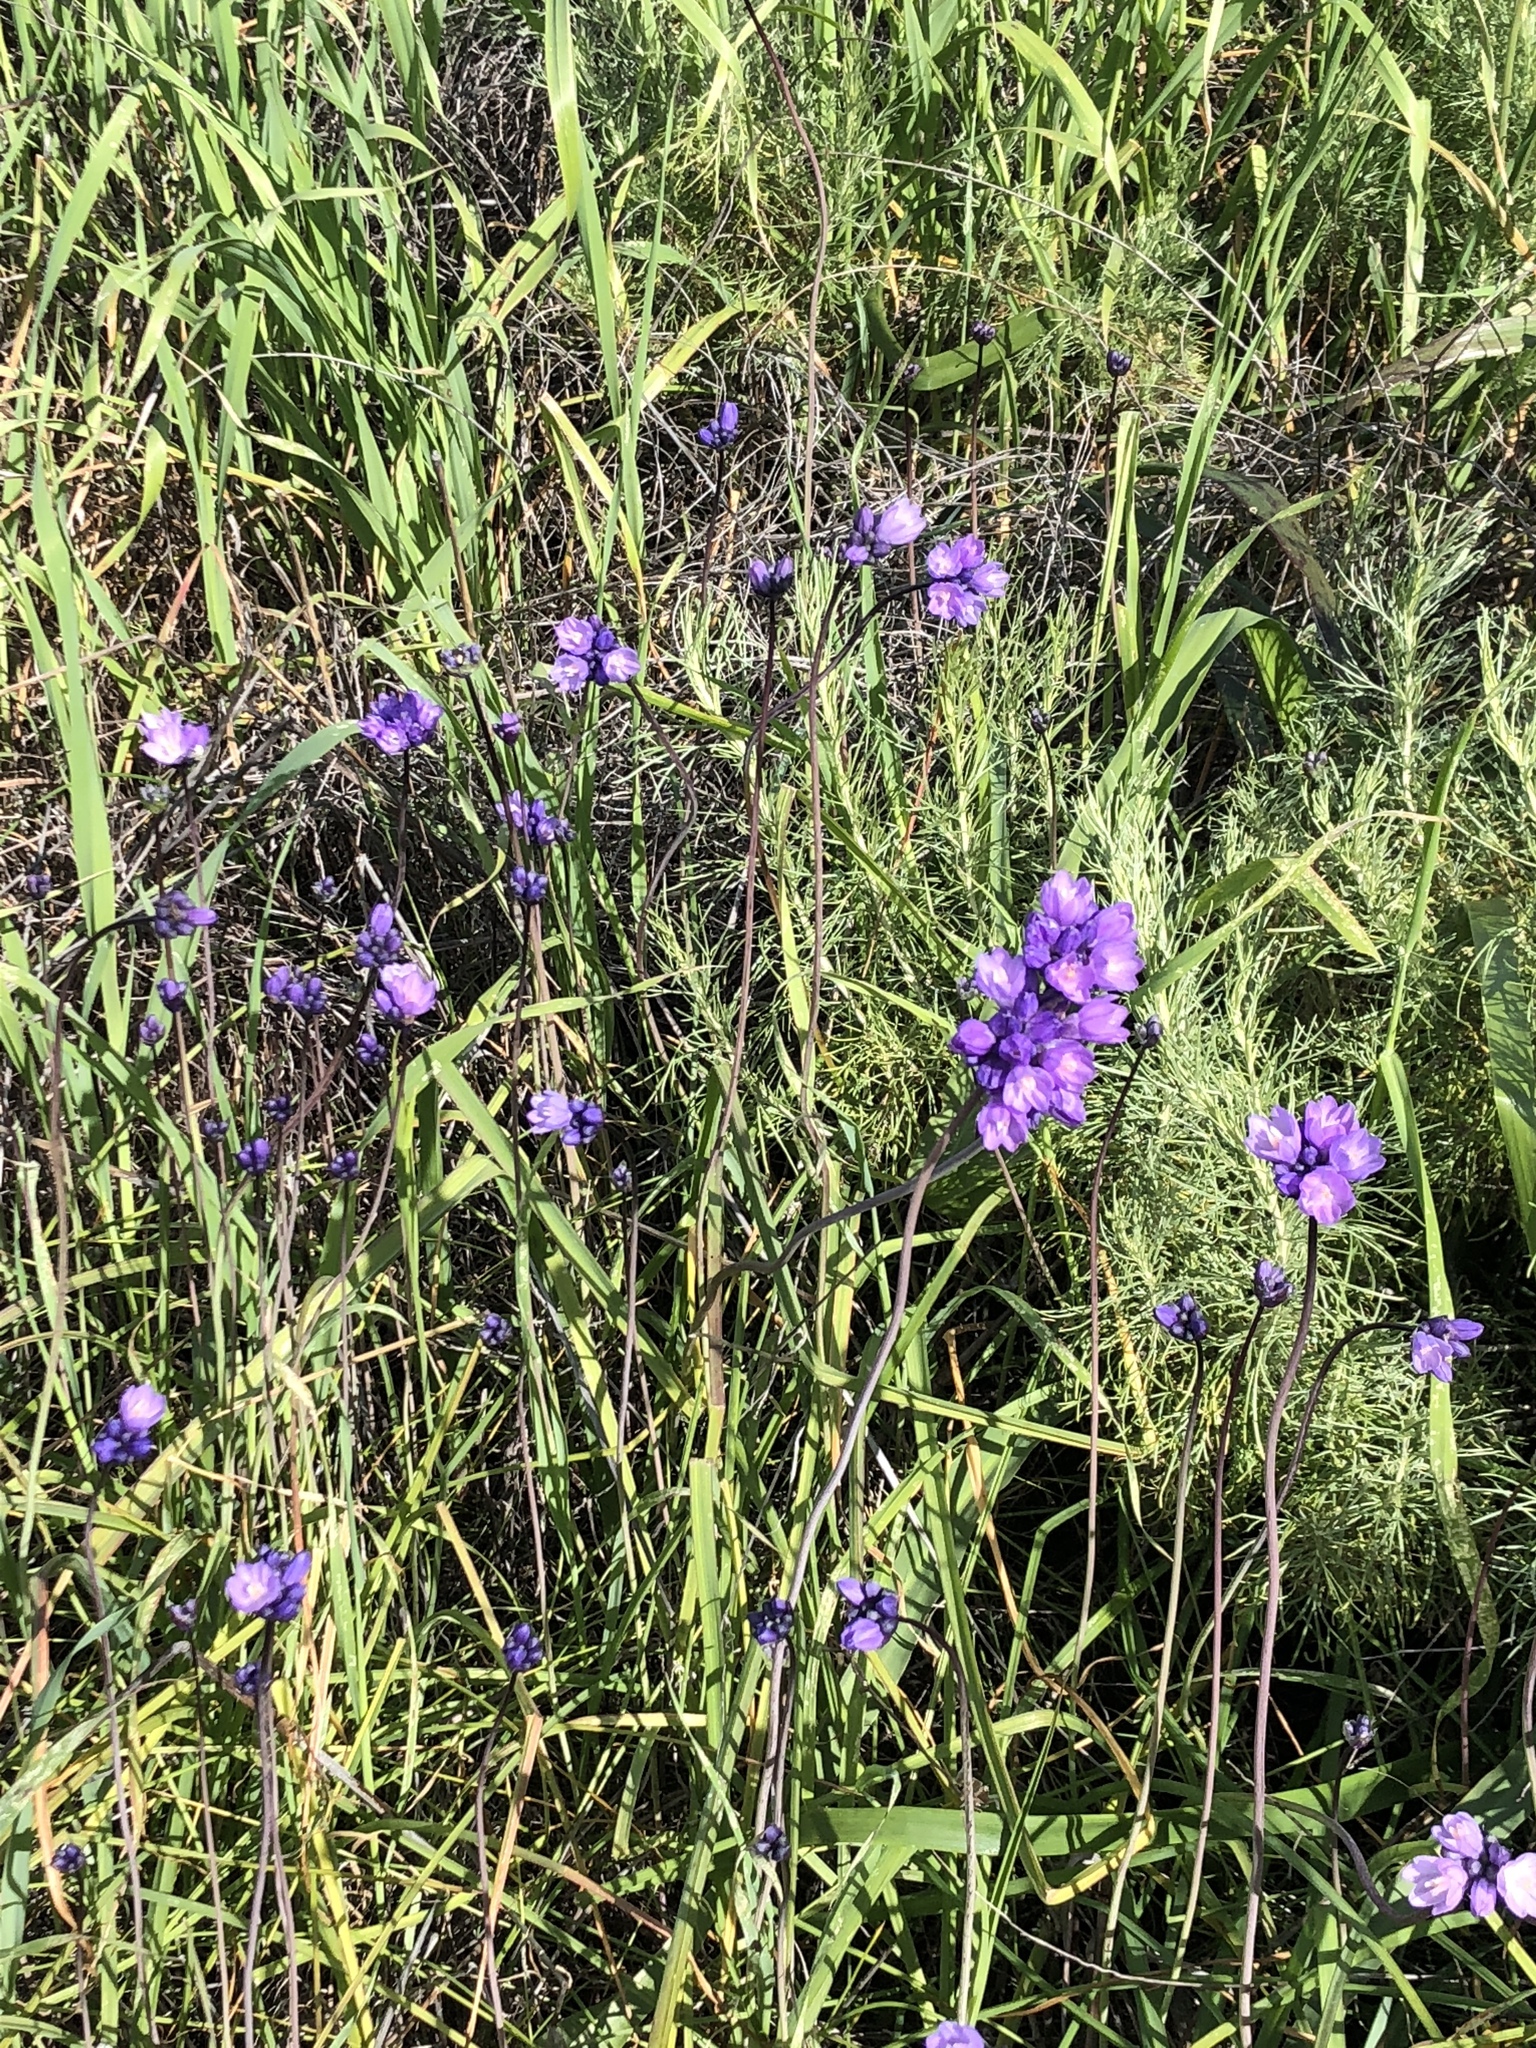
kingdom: Plantae
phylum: Tracheophyta
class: Liliopsida
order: Asparagales
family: Asparagaceae
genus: Dipterostemon
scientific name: Dipterostemon capitatus
